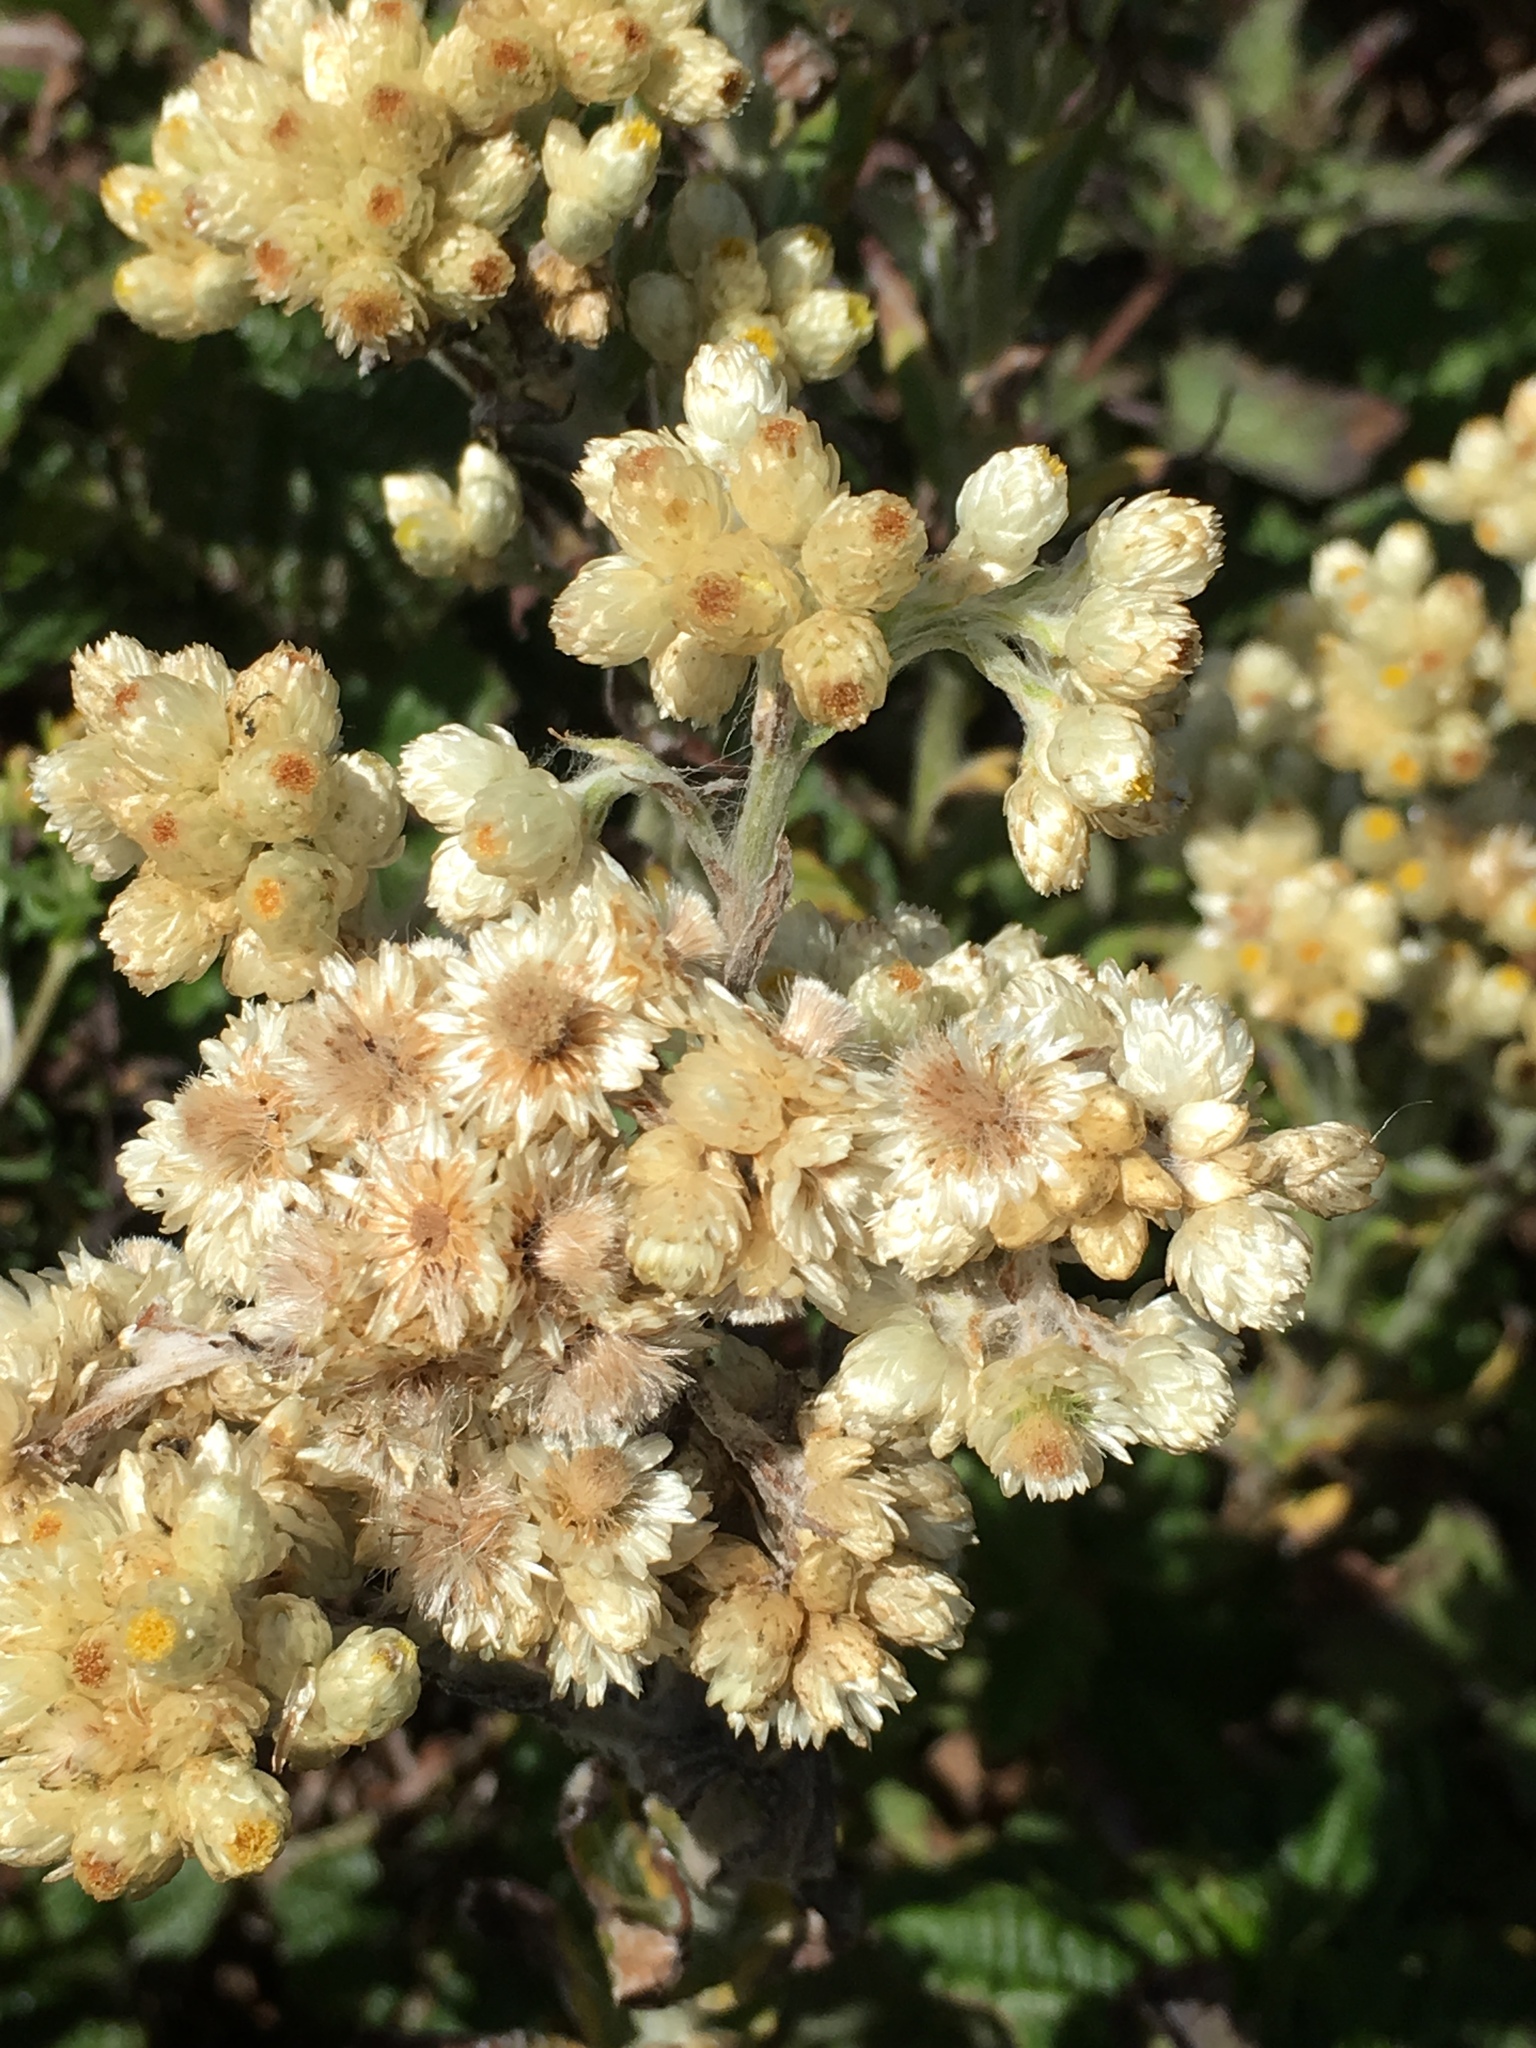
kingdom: Plantae
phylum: Tracheophyta
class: Magnoliopsida
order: Asterales
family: Asteraceae
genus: Pseudognaphalium
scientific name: Pseudognaphalium californicum
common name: California rabbit-tobacco
